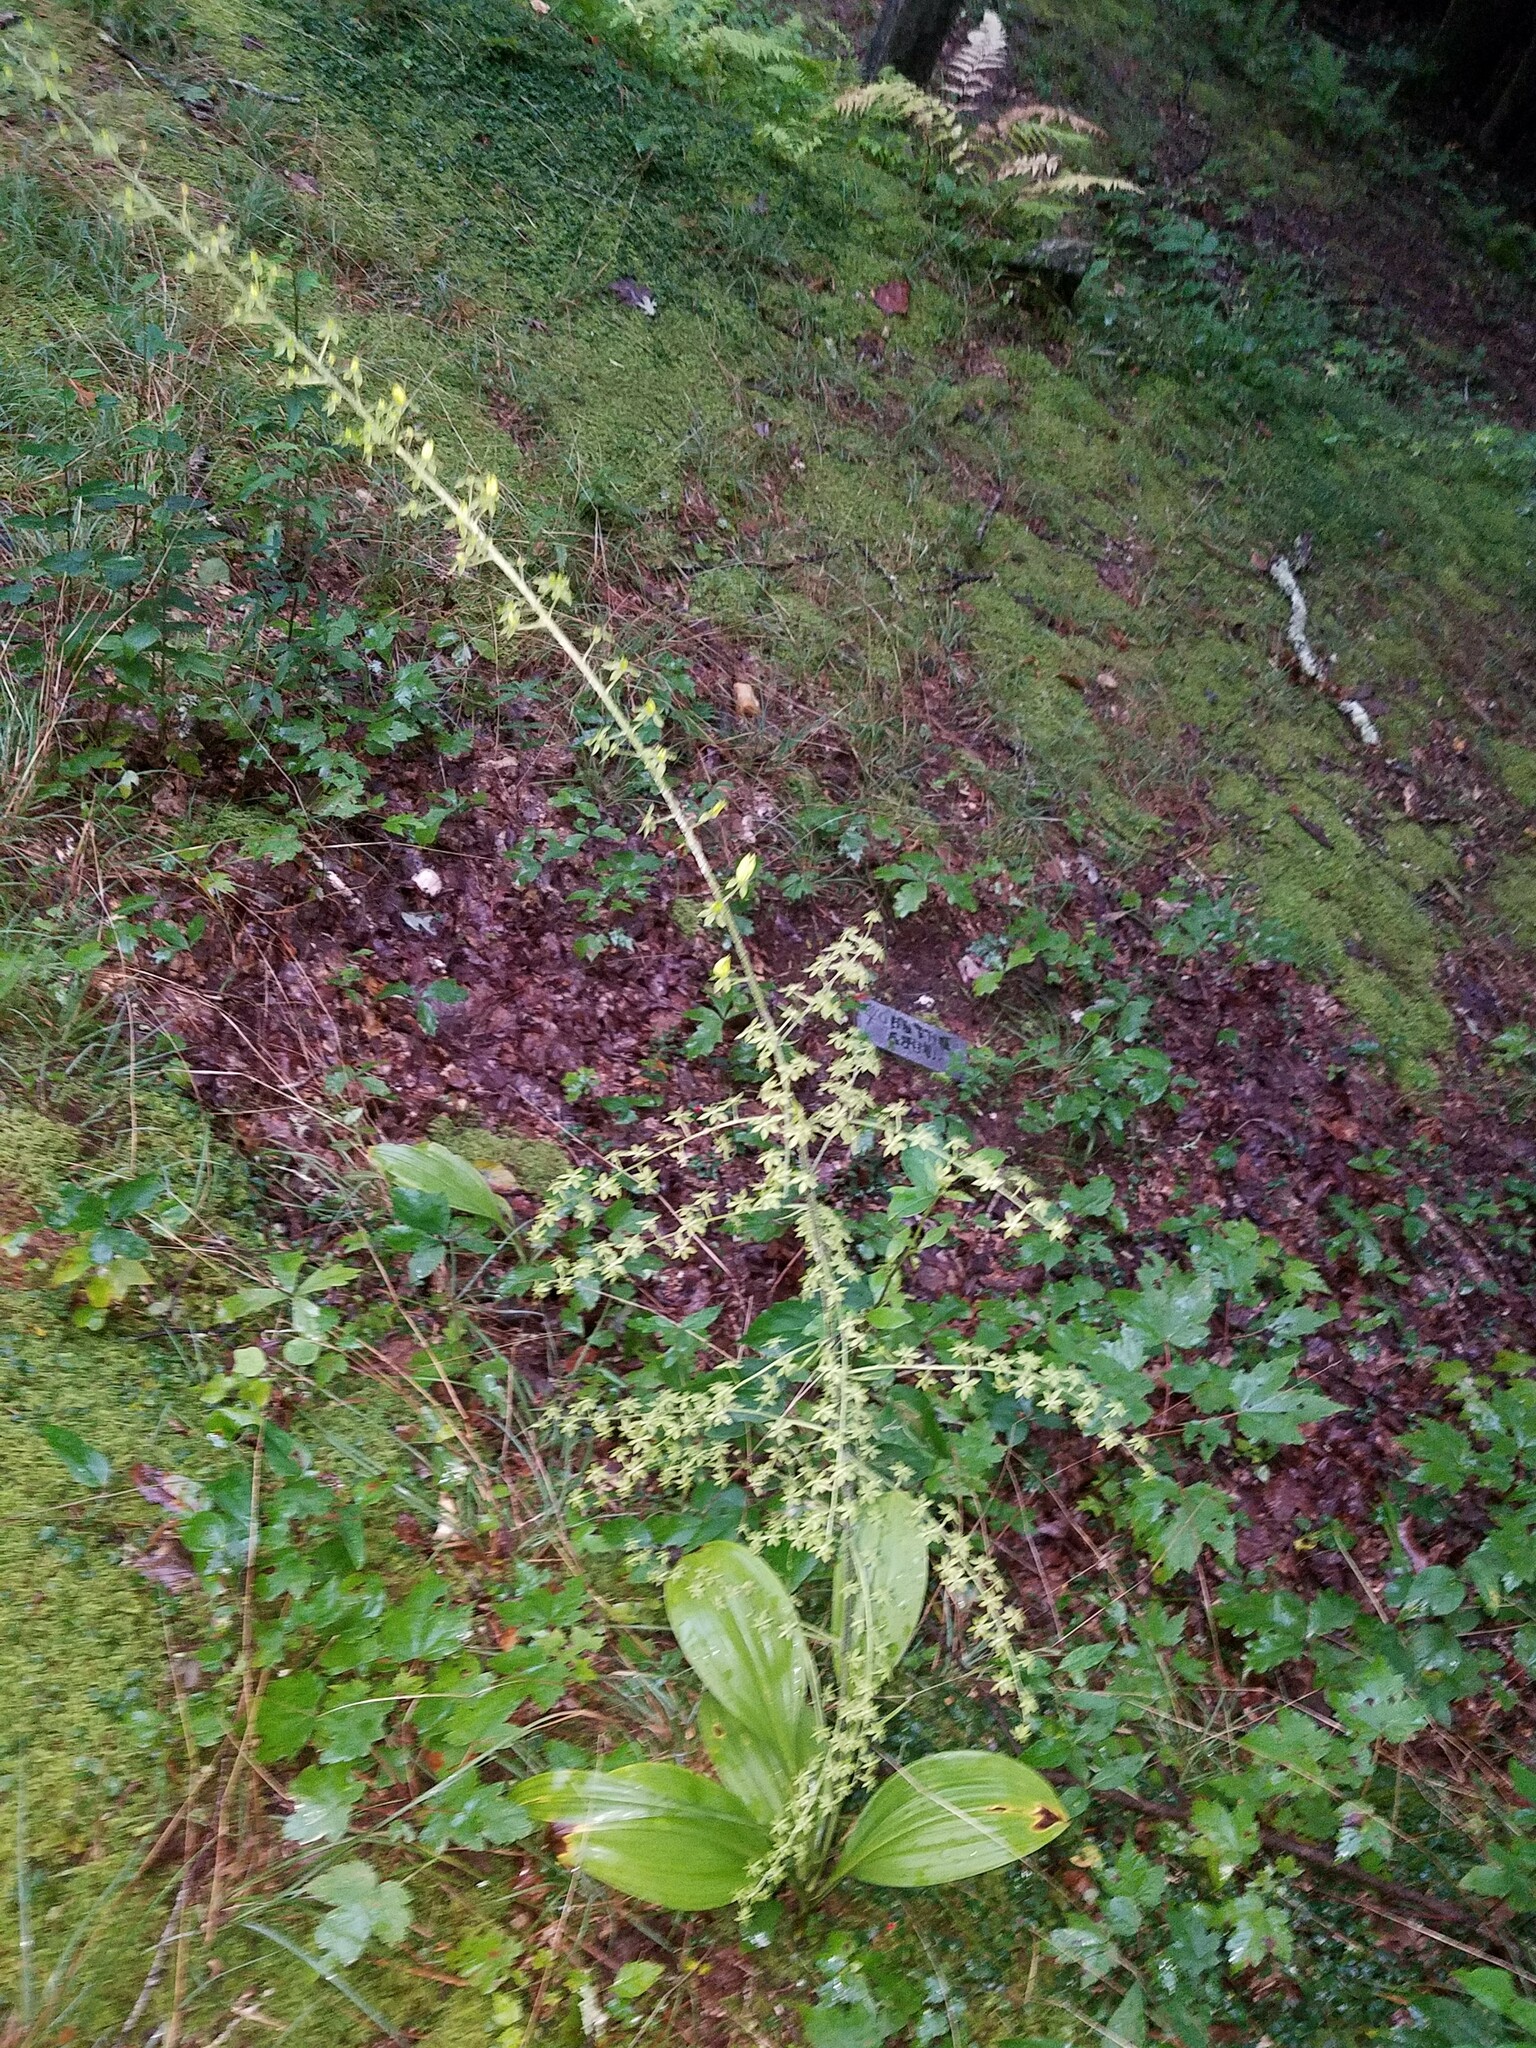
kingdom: Plantae
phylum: Tracheophyta
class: Liliopsida
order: Liliales
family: Melanthiaceae
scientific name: Melanthiaceae
